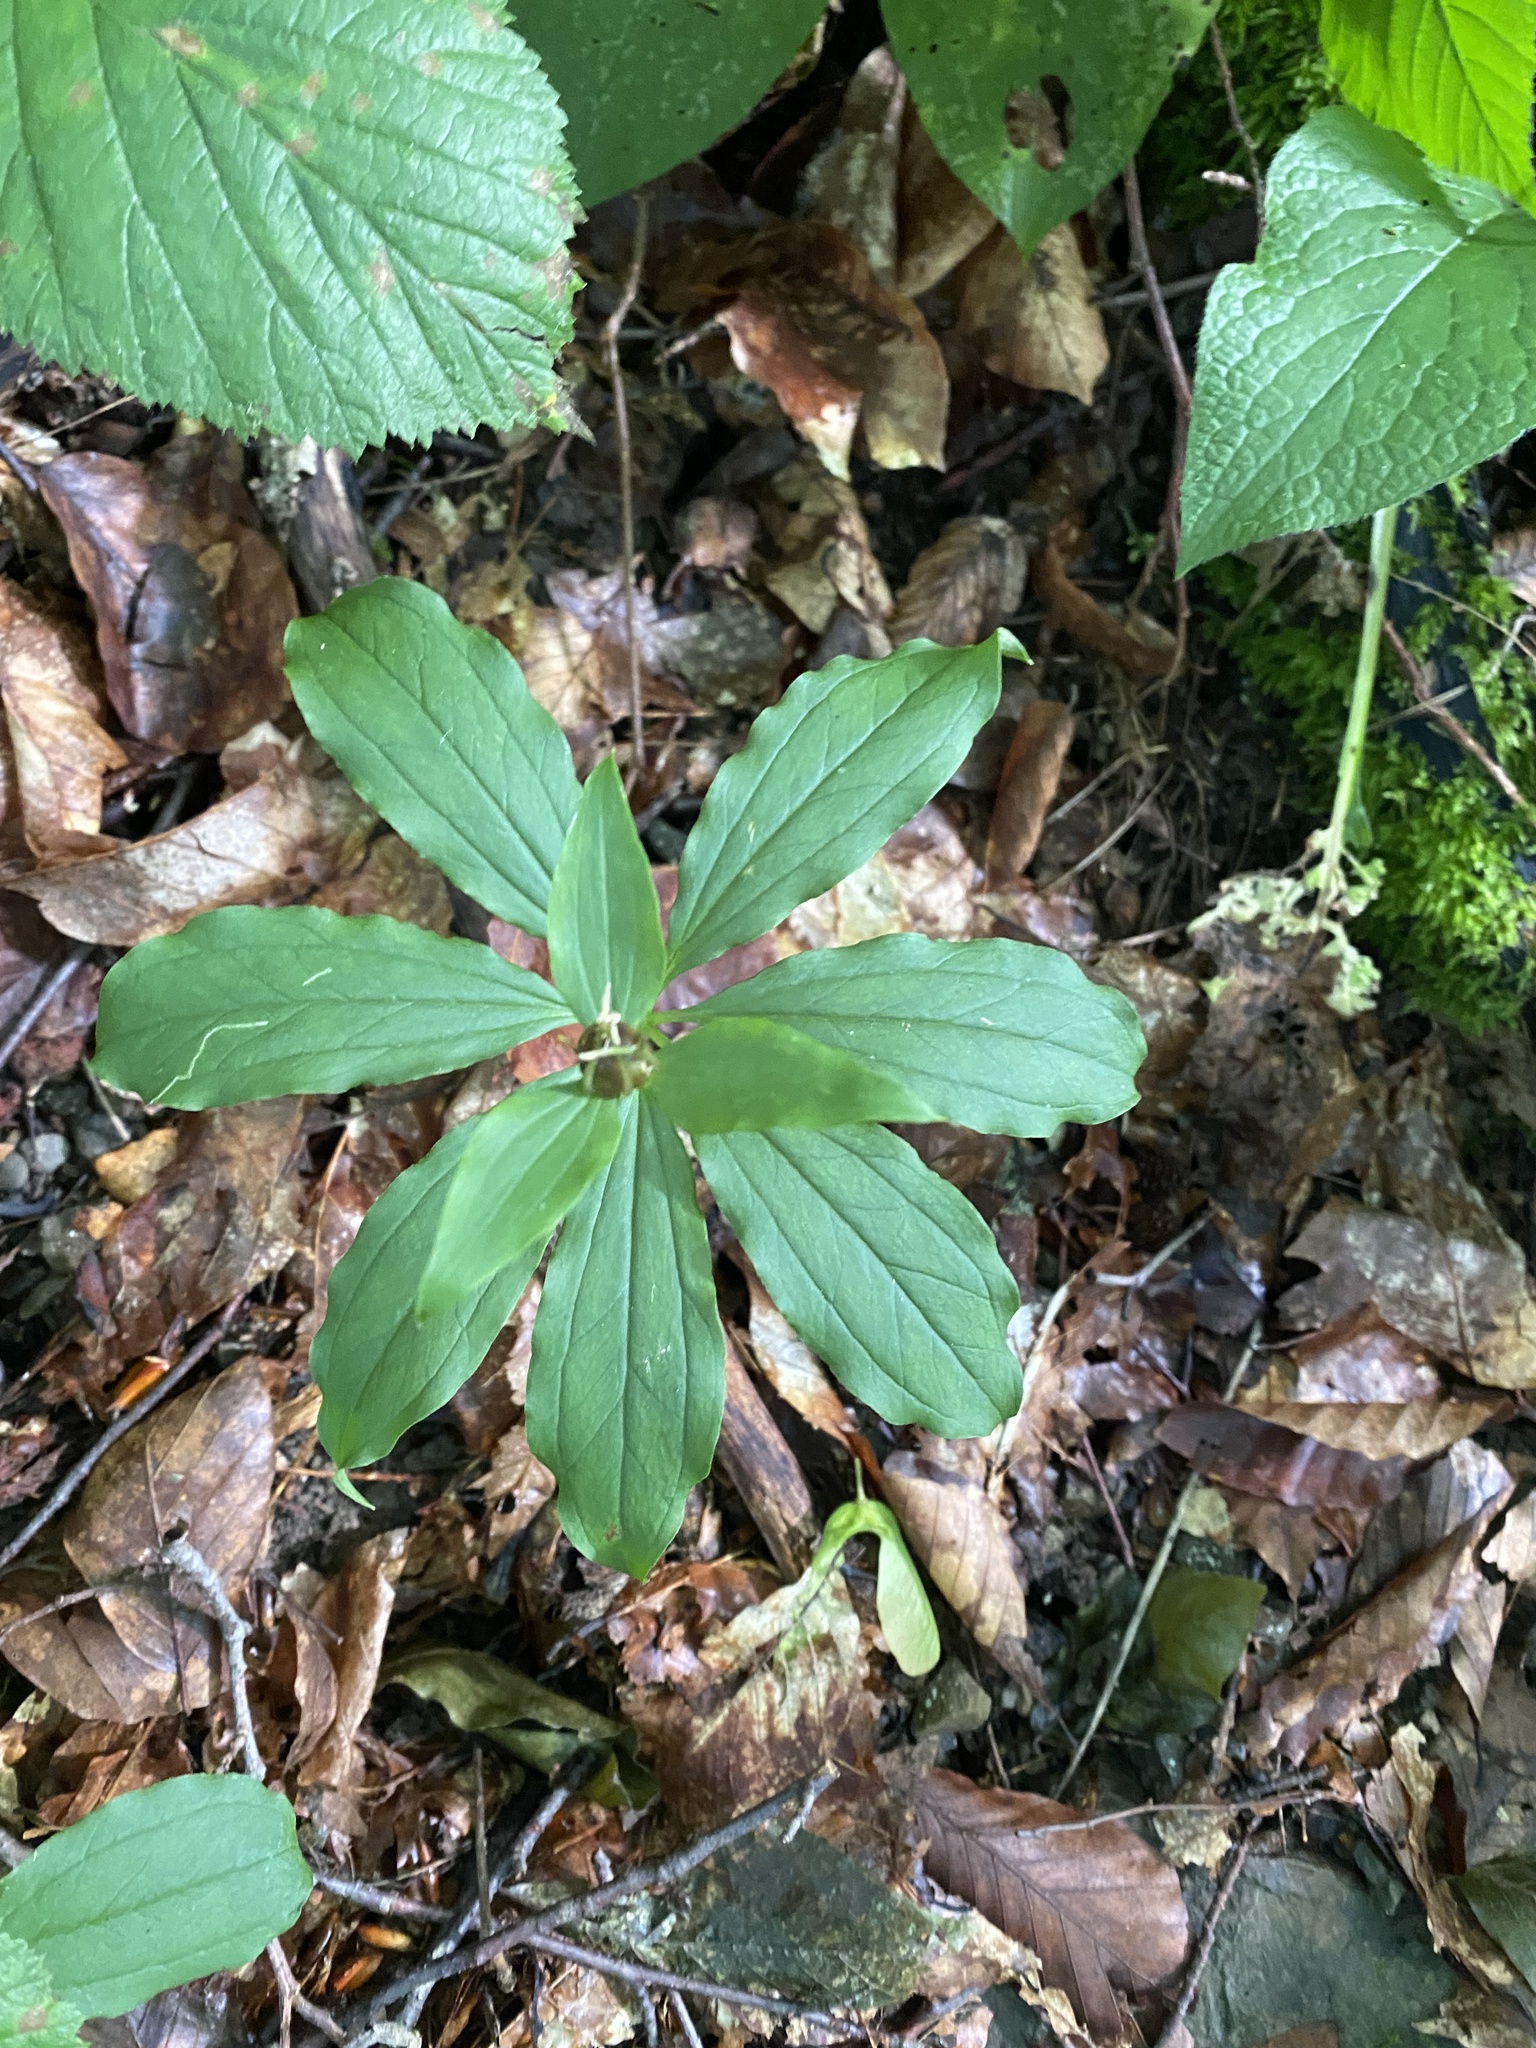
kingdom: Plantae
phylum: Tracheophyta
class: Liliopsida
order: Liliales
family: Melanthiaceae
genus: Paris
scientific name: Paris incompleta
